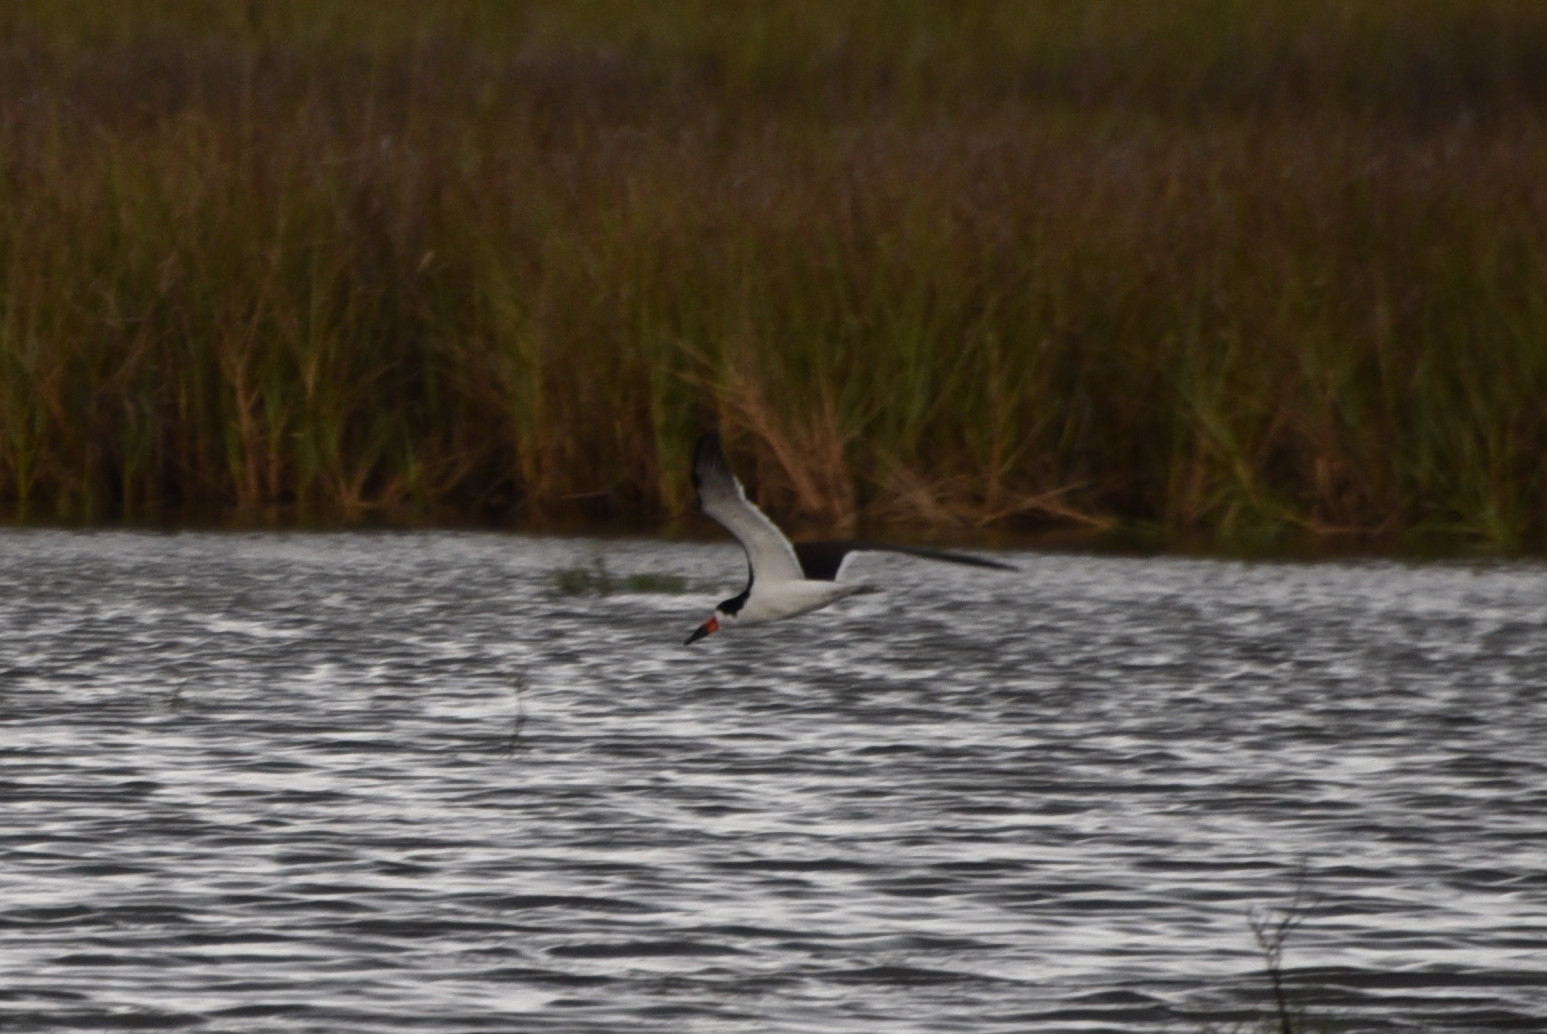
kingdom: Animalia
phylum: Chordata
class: Aves
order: Charadriiformes
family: Laridae
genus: Rynchops
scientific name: Rynchops niger
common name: Black skimmer
